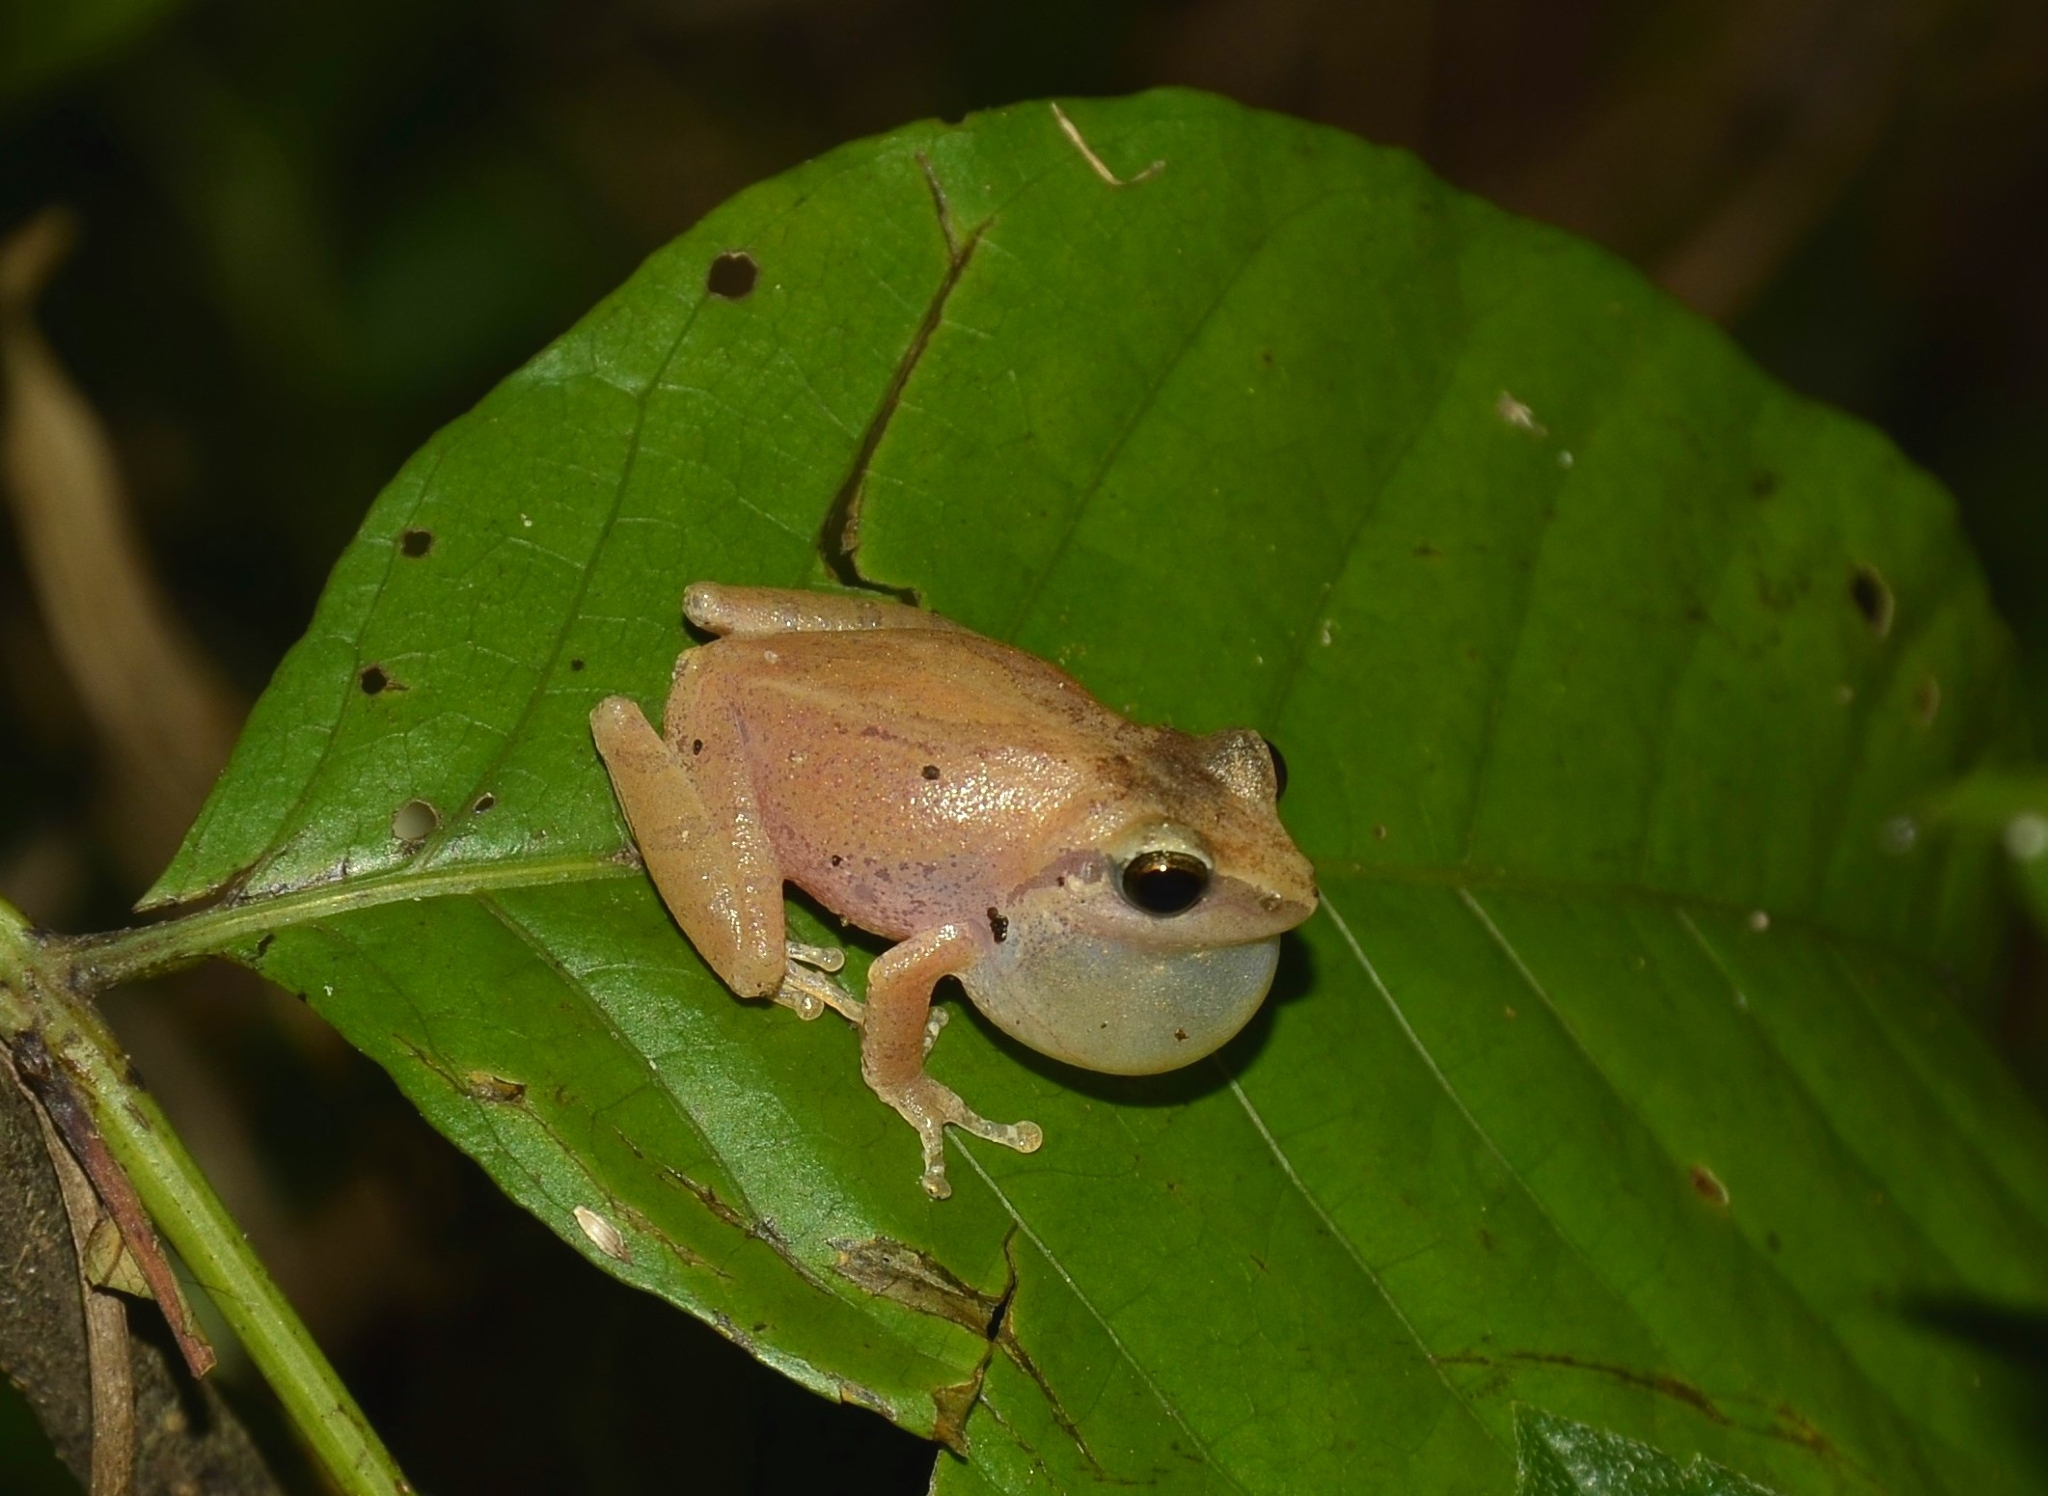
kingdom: Animalia
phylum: Chordata
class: Amphibia
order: Anura
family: Rhacophoridae
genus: Pseudophilautus
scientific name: Pseudophilautus wynaadensis
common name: Dark-eared bush frog
